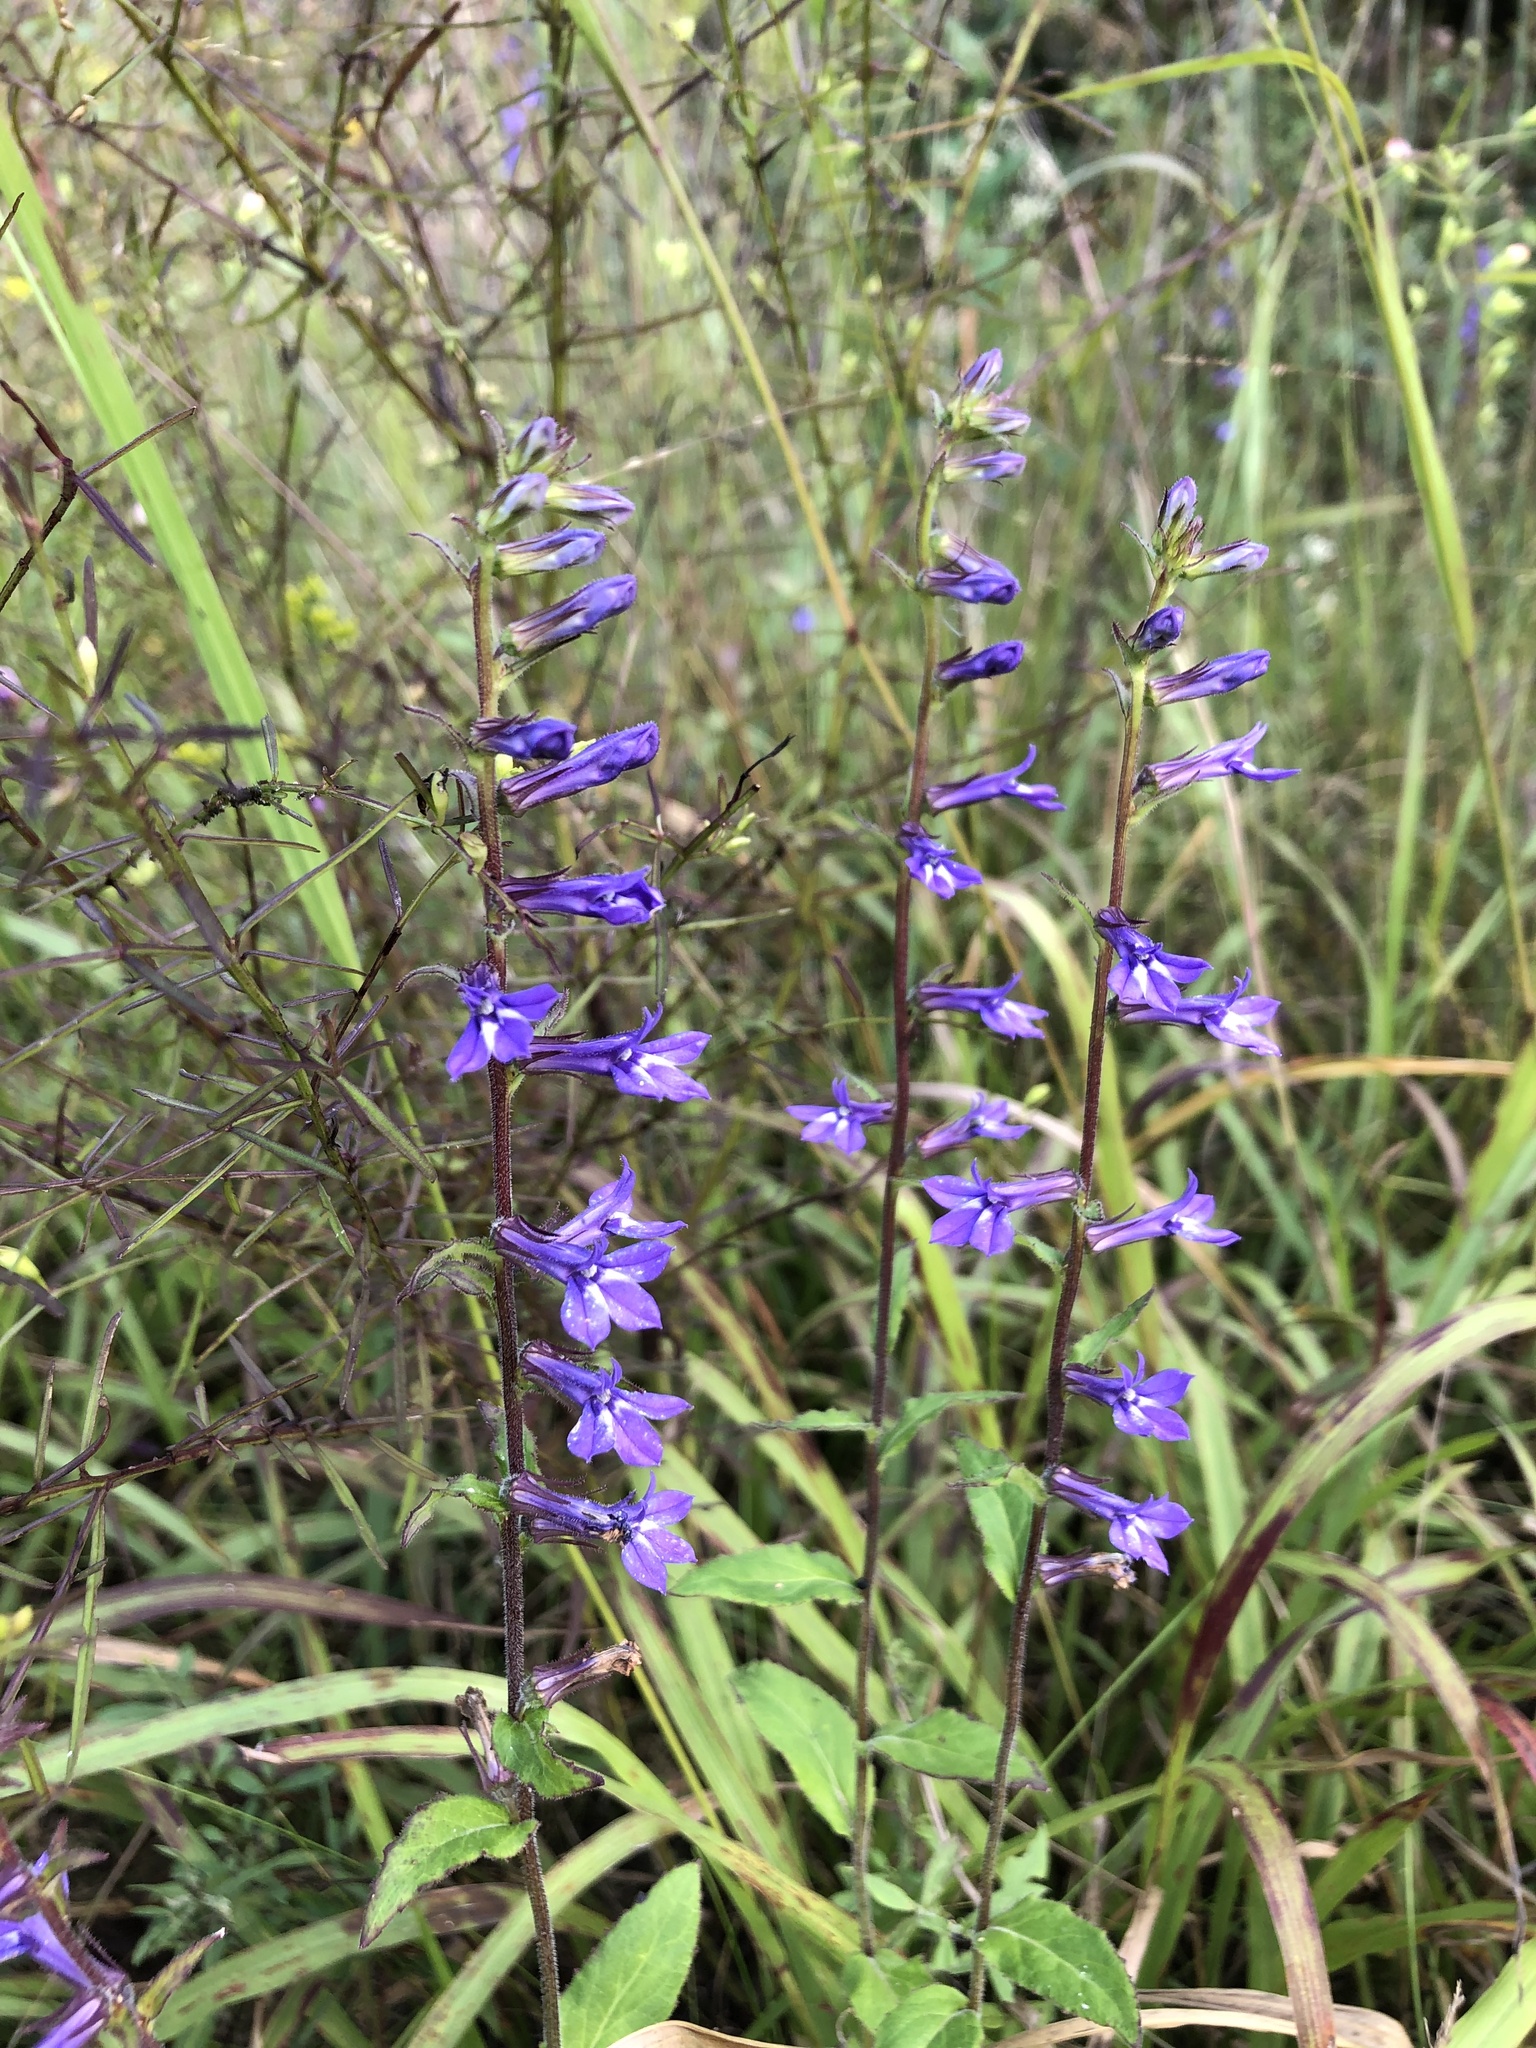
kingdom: Plantae
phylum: Tracheophyta
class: Magnoliopsida
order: Asterales
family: Campanulaceae
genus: Lobelia
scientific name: Lobelia puberula
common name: Purple dewdrop
